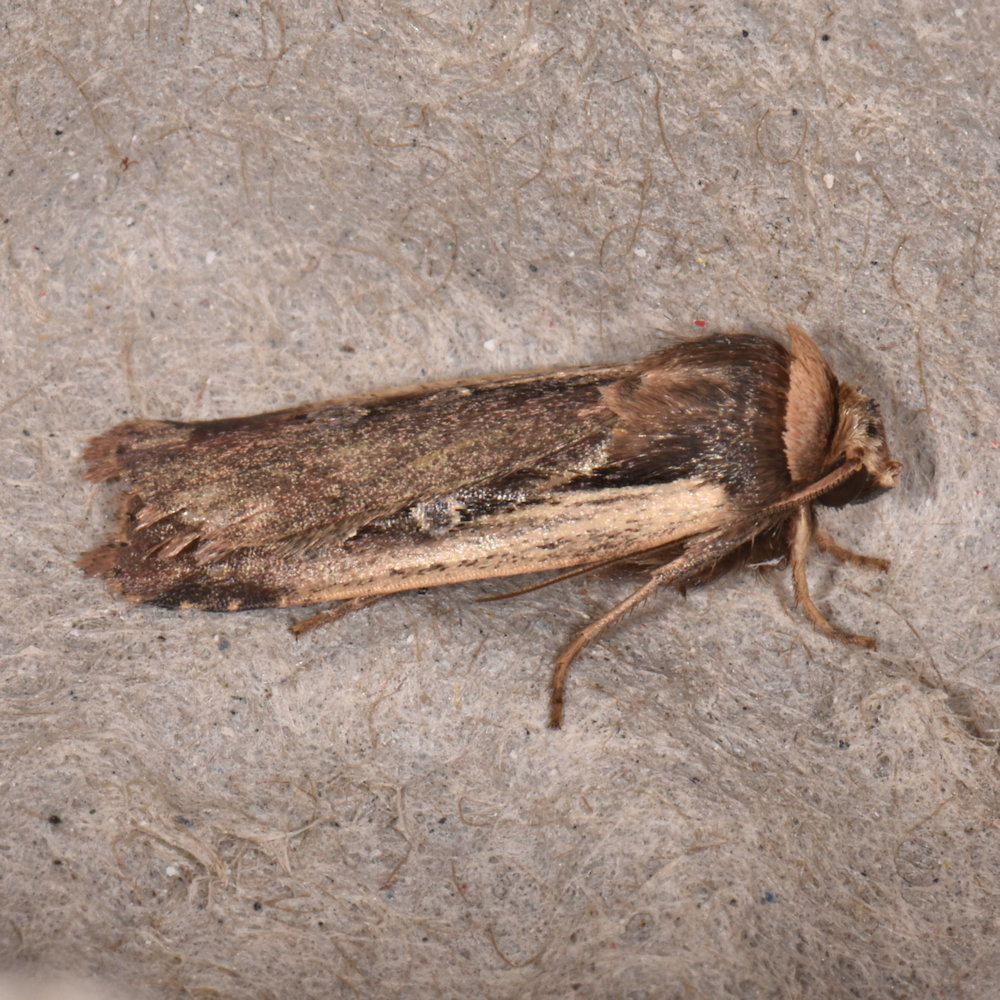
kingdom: Animalia
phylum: Arthropoda
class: Insecta
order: Lepidoptera
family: Noctuidae
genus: Ochropleura
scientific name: Ochropleura implecta
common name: Flame-shouldered dart
